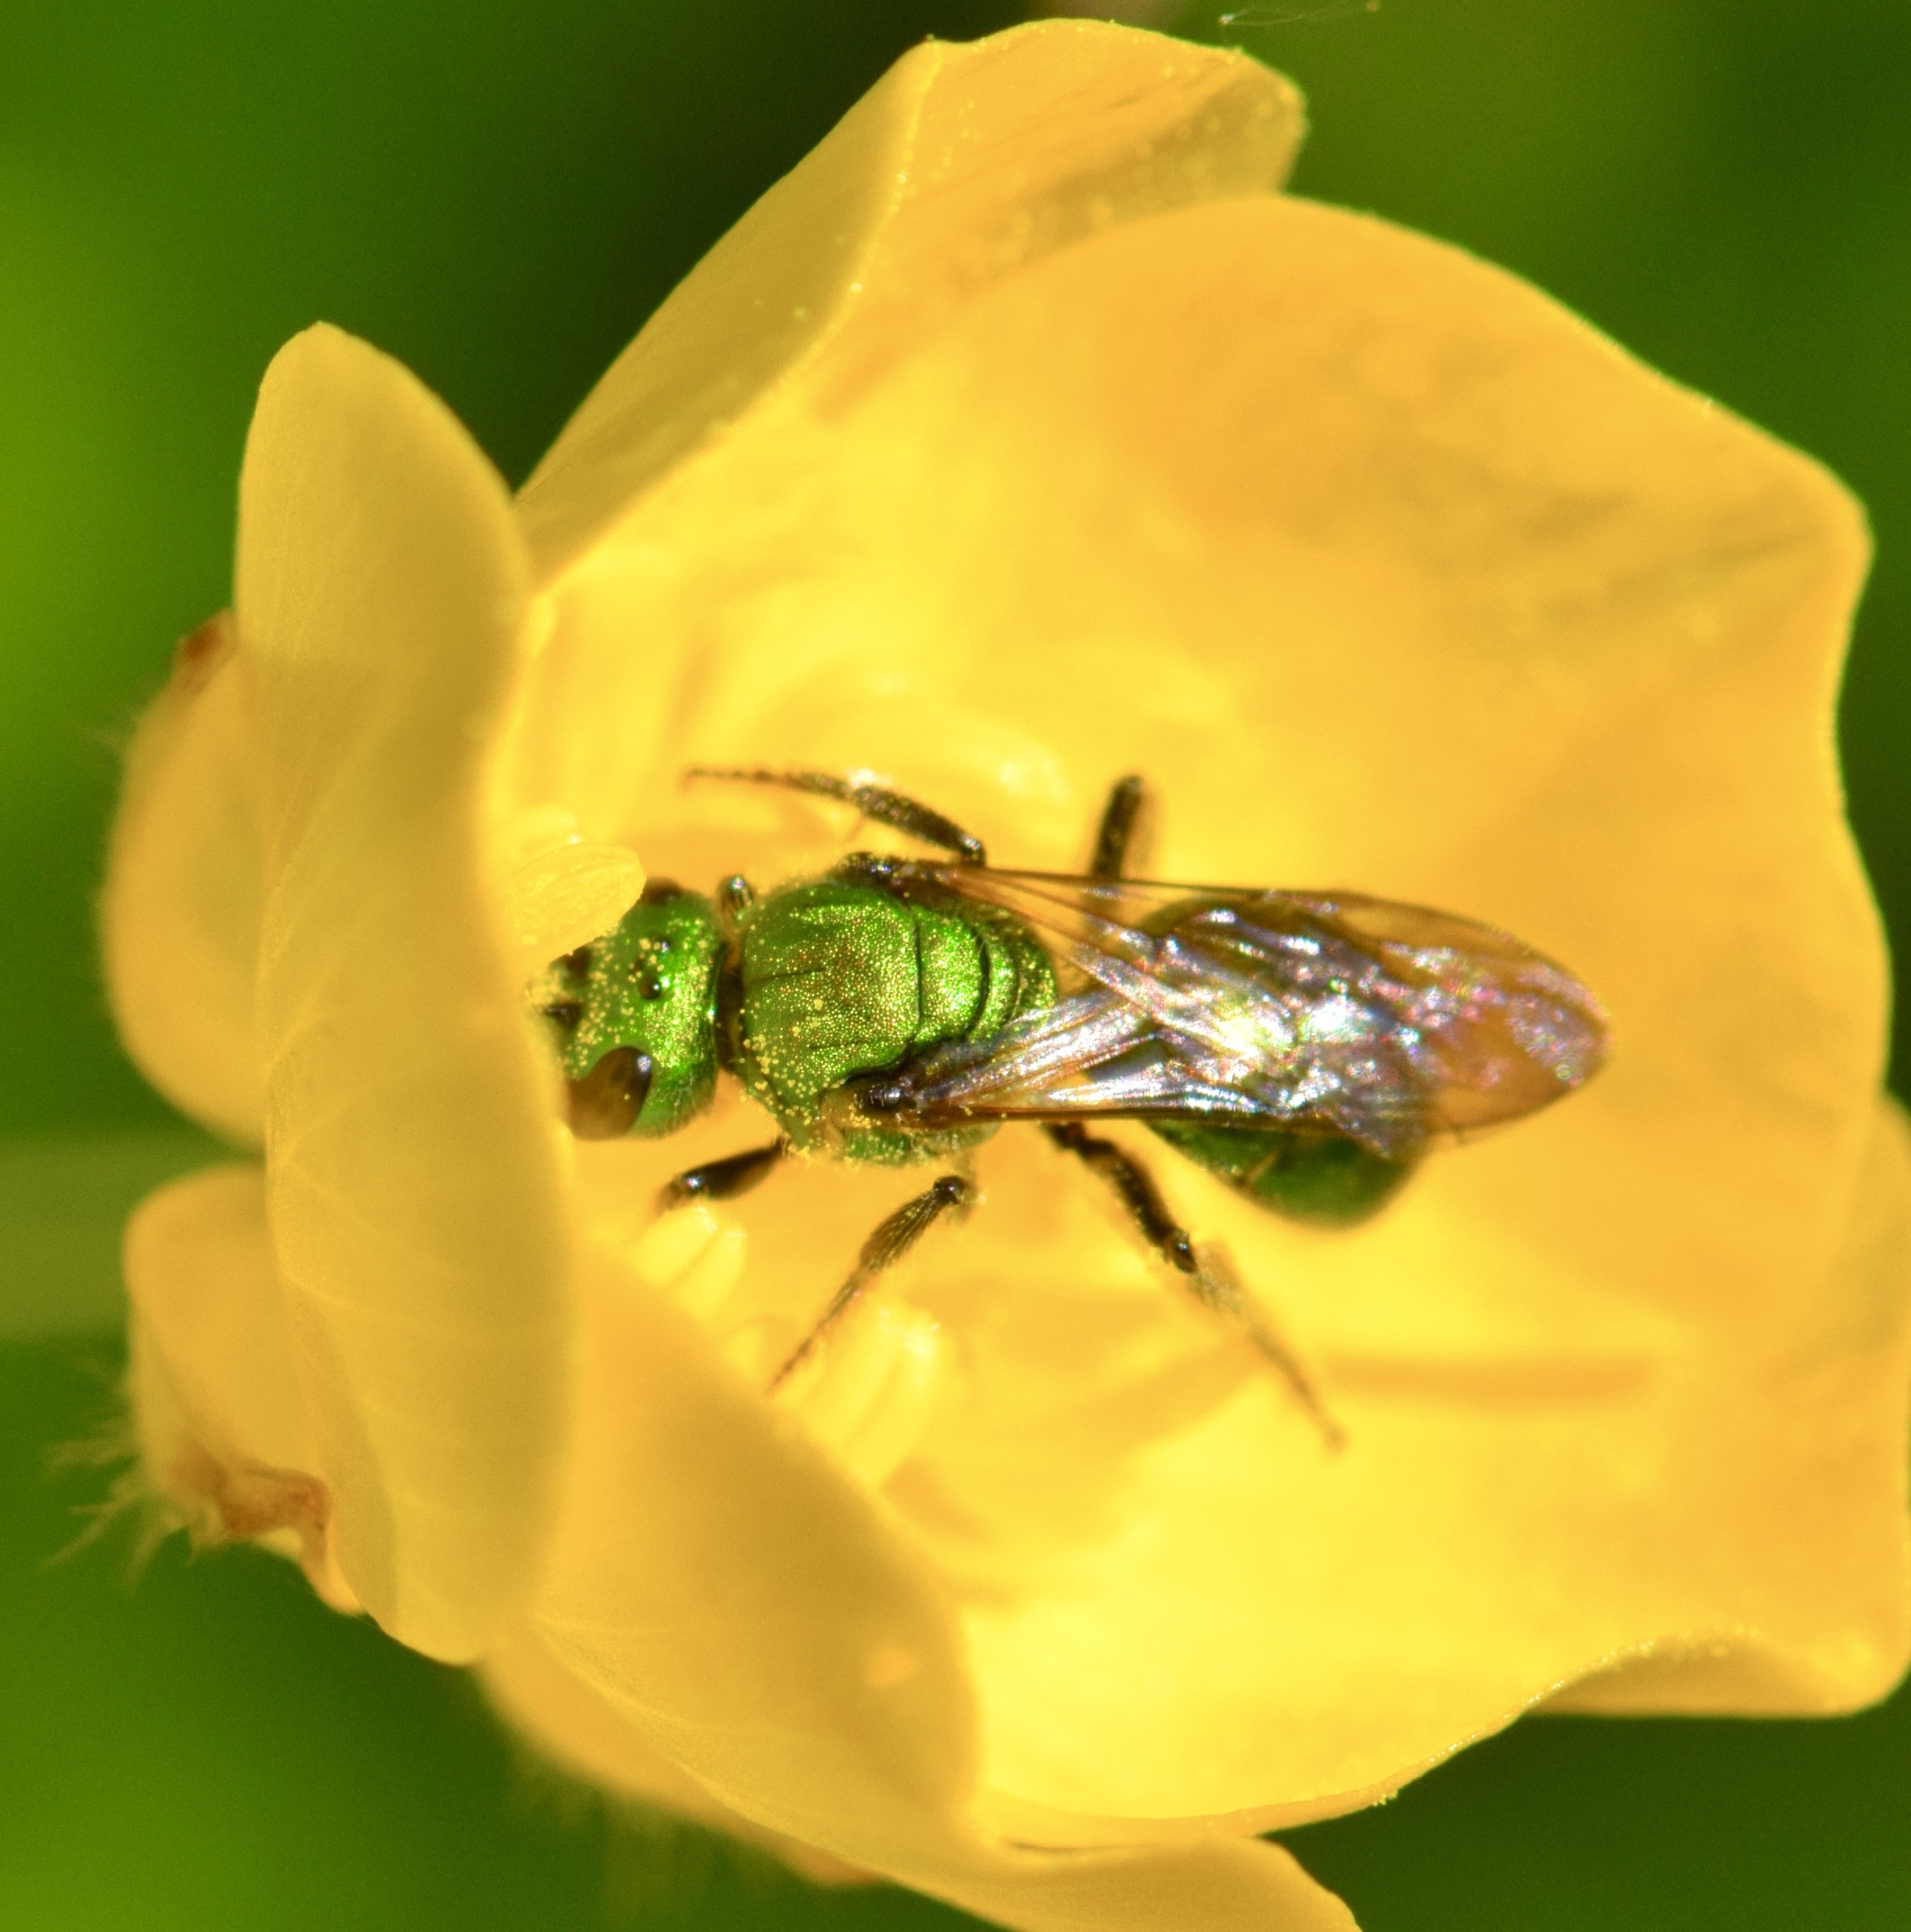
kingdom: Animalia
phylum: Arthropoda
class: Insecta
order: Hymenoptera
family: Halictidae
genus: Augochlora
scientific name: Augochlora pura
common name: Pure green sweat bee
